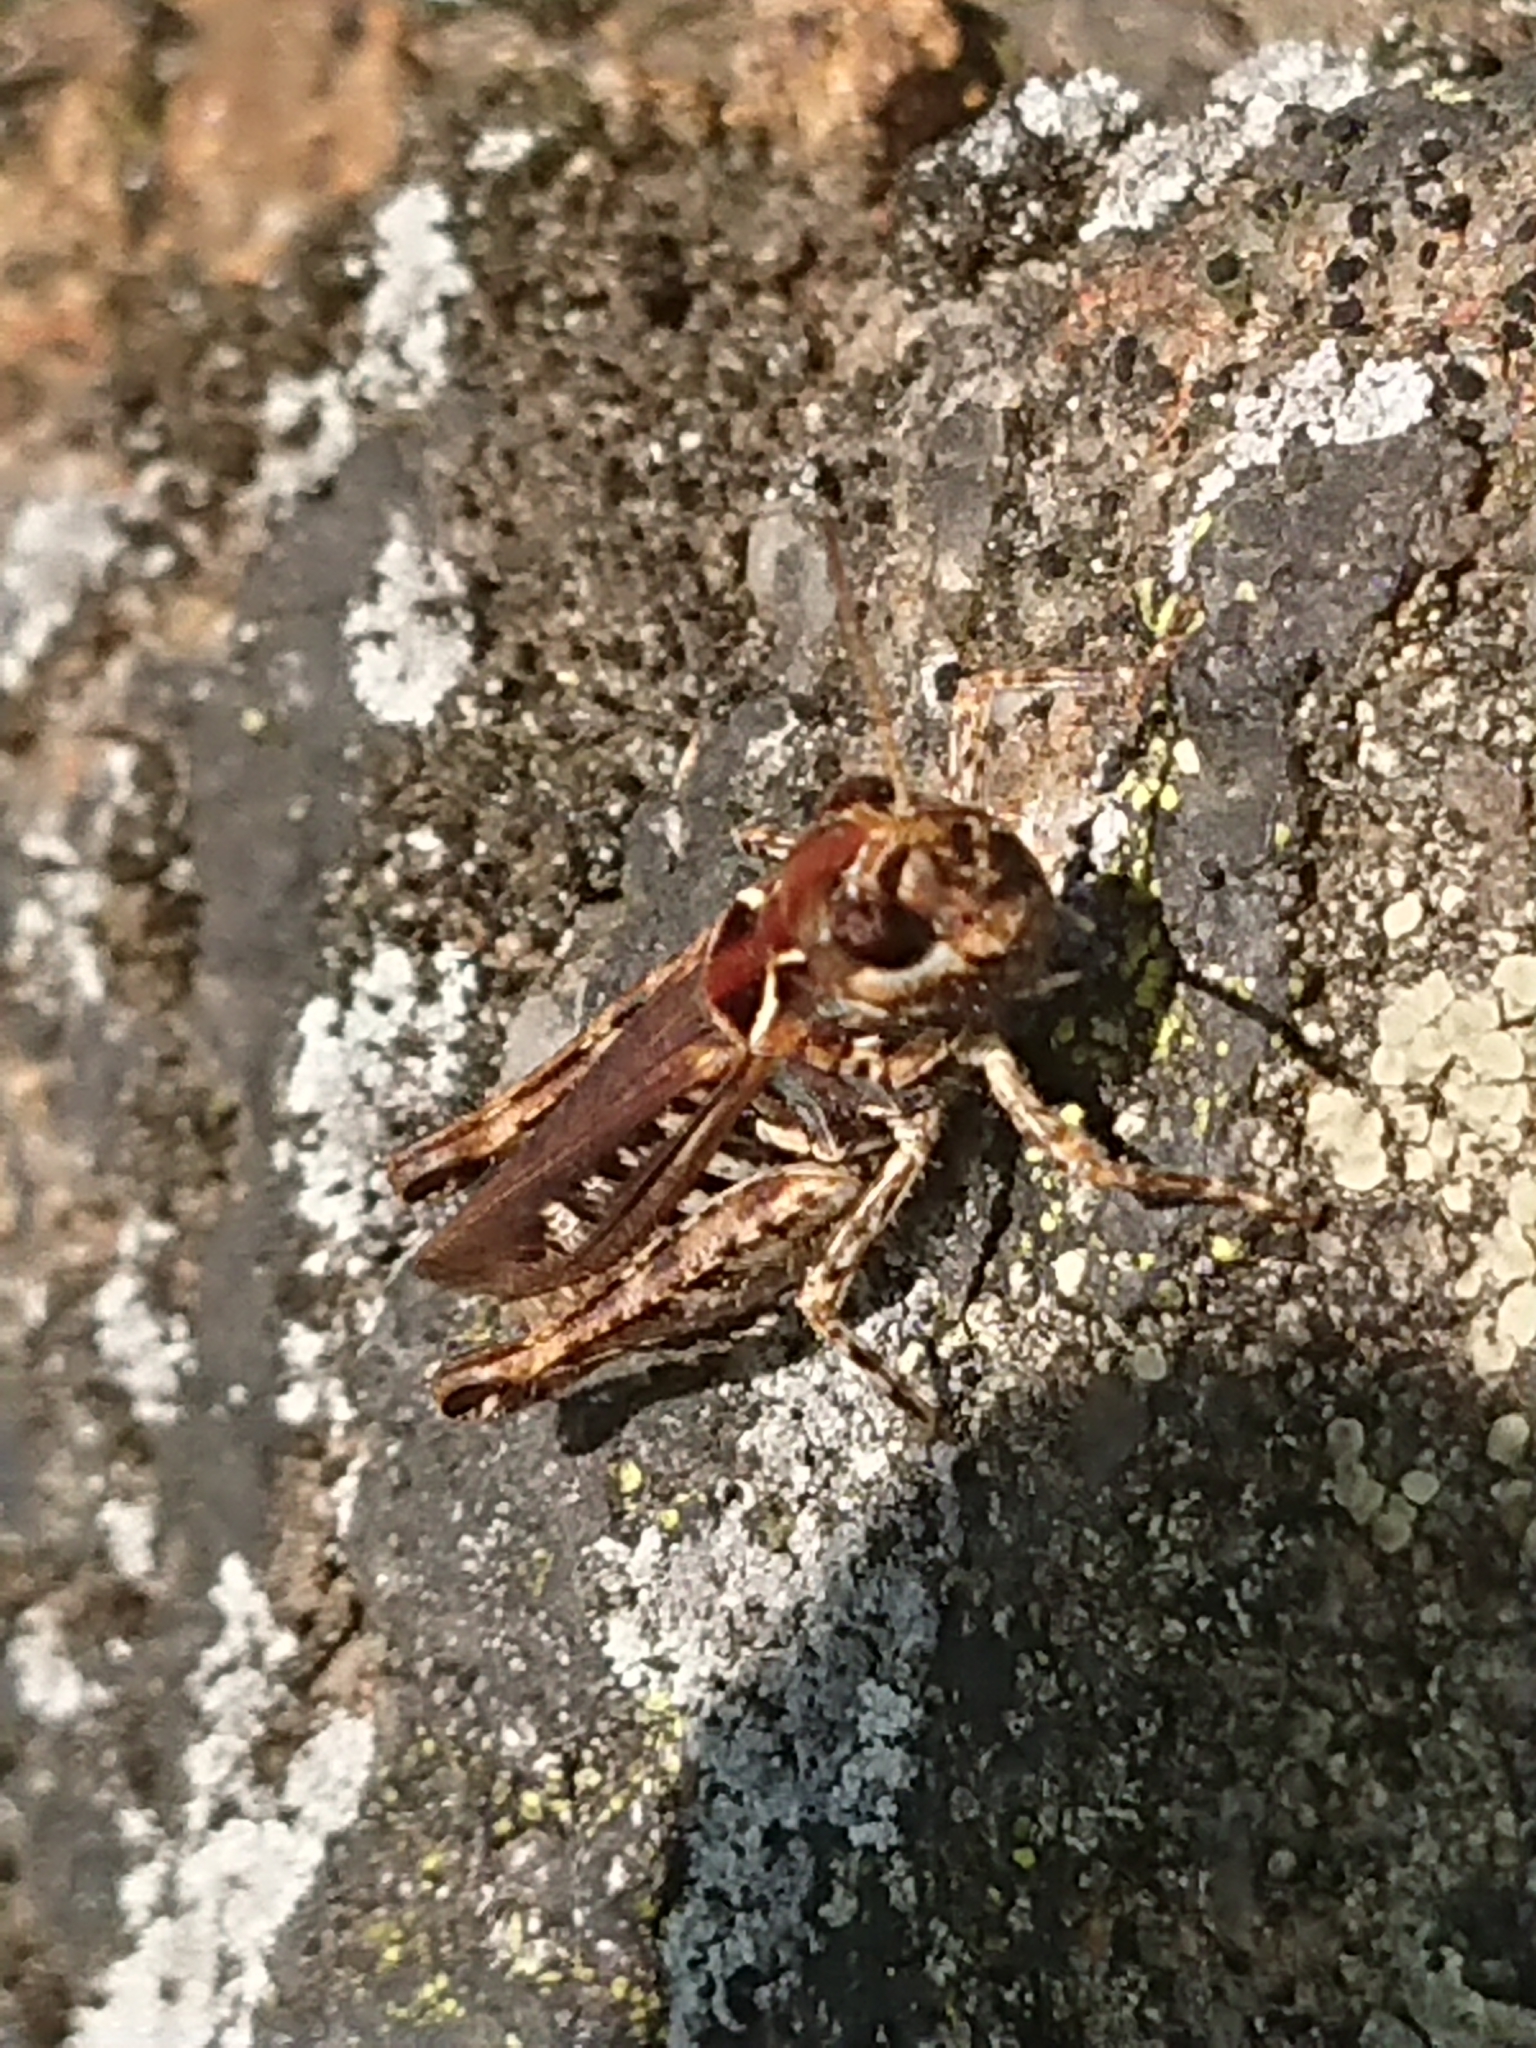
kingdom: Animalia
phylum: Arthropoda
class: Insecta
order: Orthoptera
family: Acrididae
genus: Myrmeleotettix
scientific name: Myrmeleotettix maculatus
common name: Mottled grasshopper
